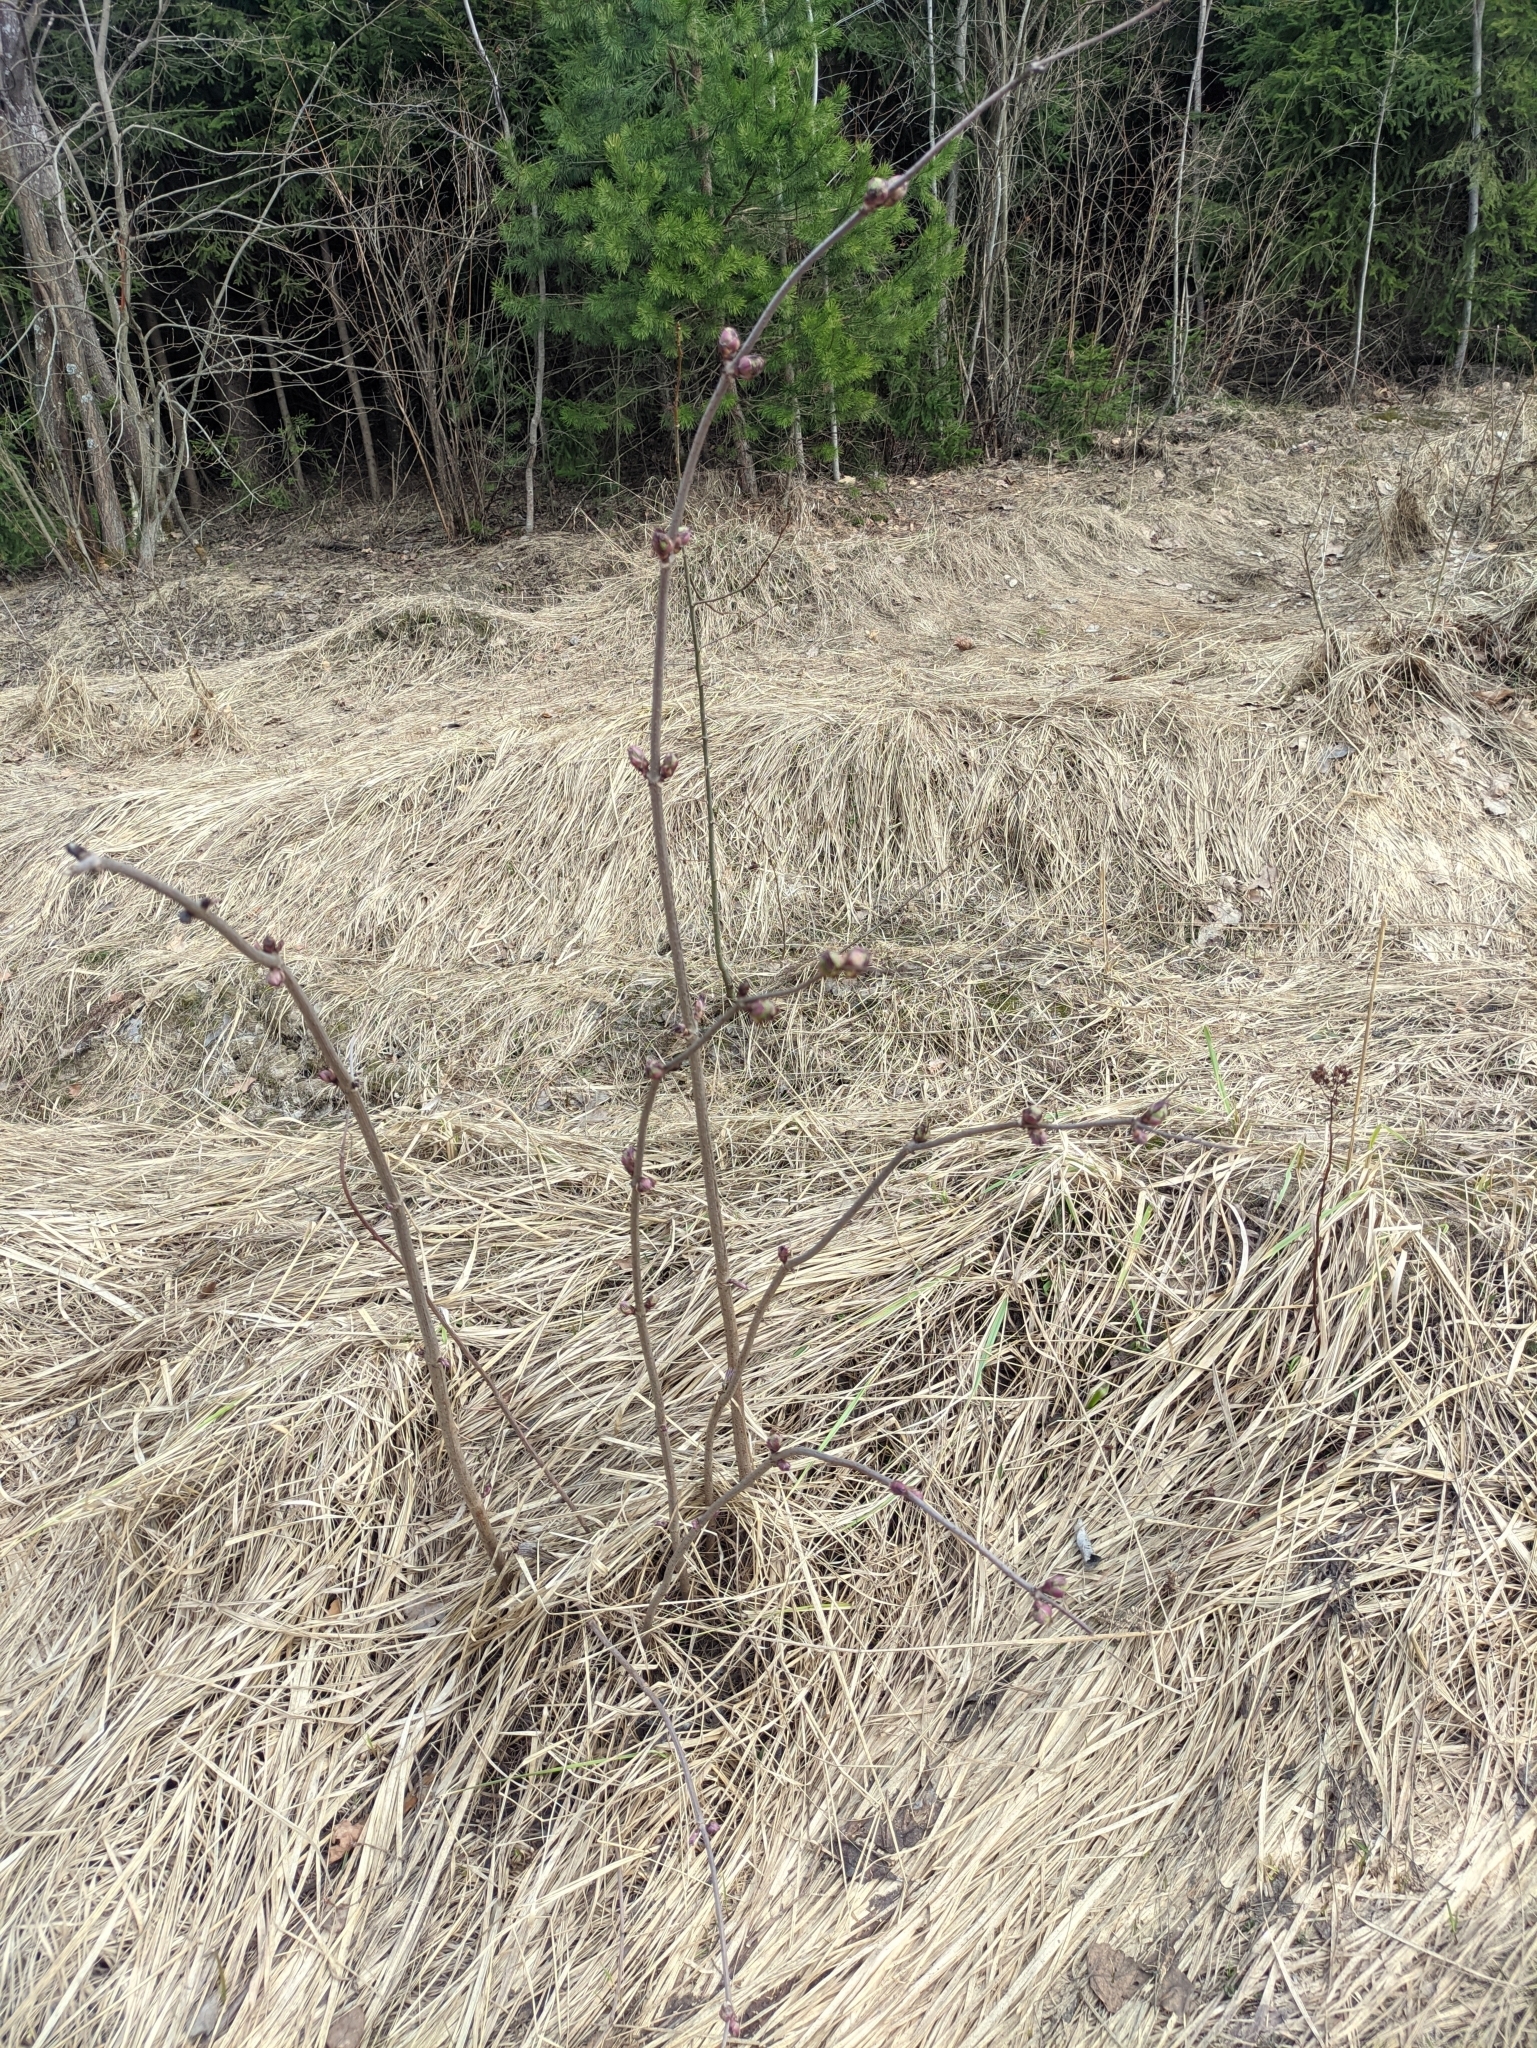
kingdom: Plantae
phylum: Tracheophyta
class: Magnoliopsida
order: Dipsacales
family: Viburnaceae
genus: Sambucus
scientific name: Sambucus racemosa
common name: Red-berried elder
